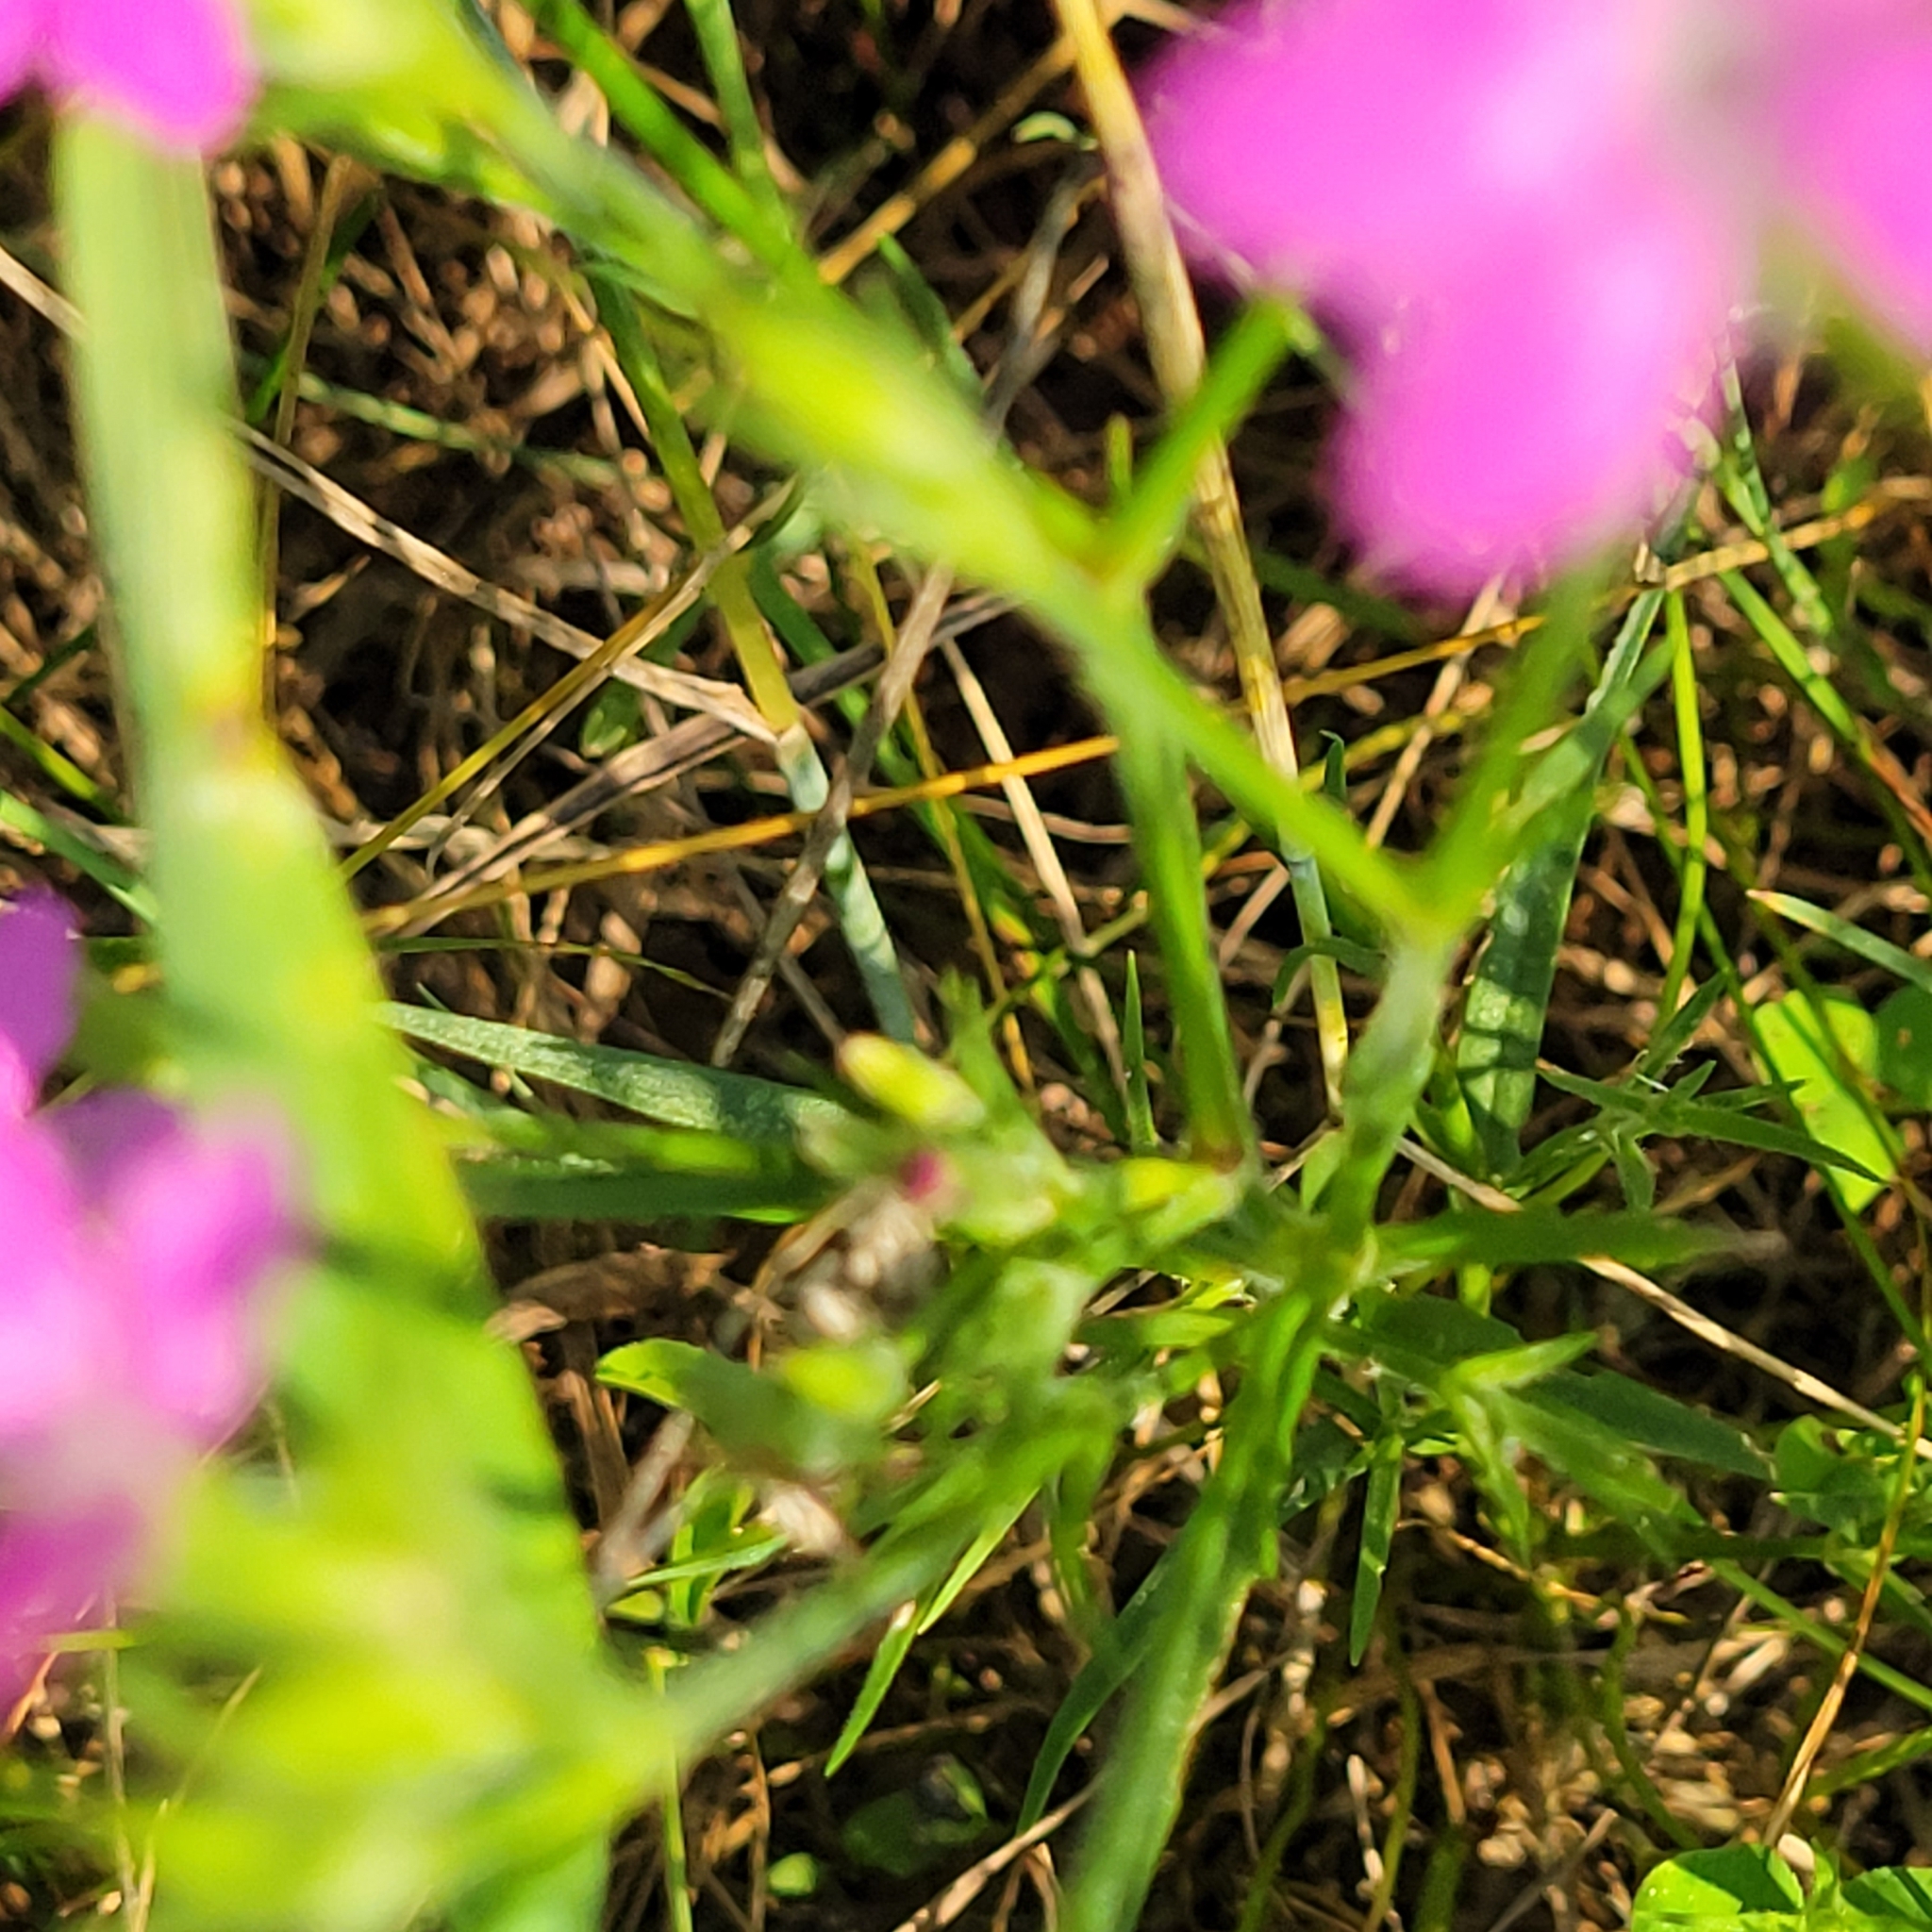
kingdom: Plantae
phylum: Tracheophyta
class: Magnoliopsida
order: Caryophyllales
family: Caryophyllaceae
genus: Dianthus
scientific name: Dianthus armeria
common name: Deptford pink
